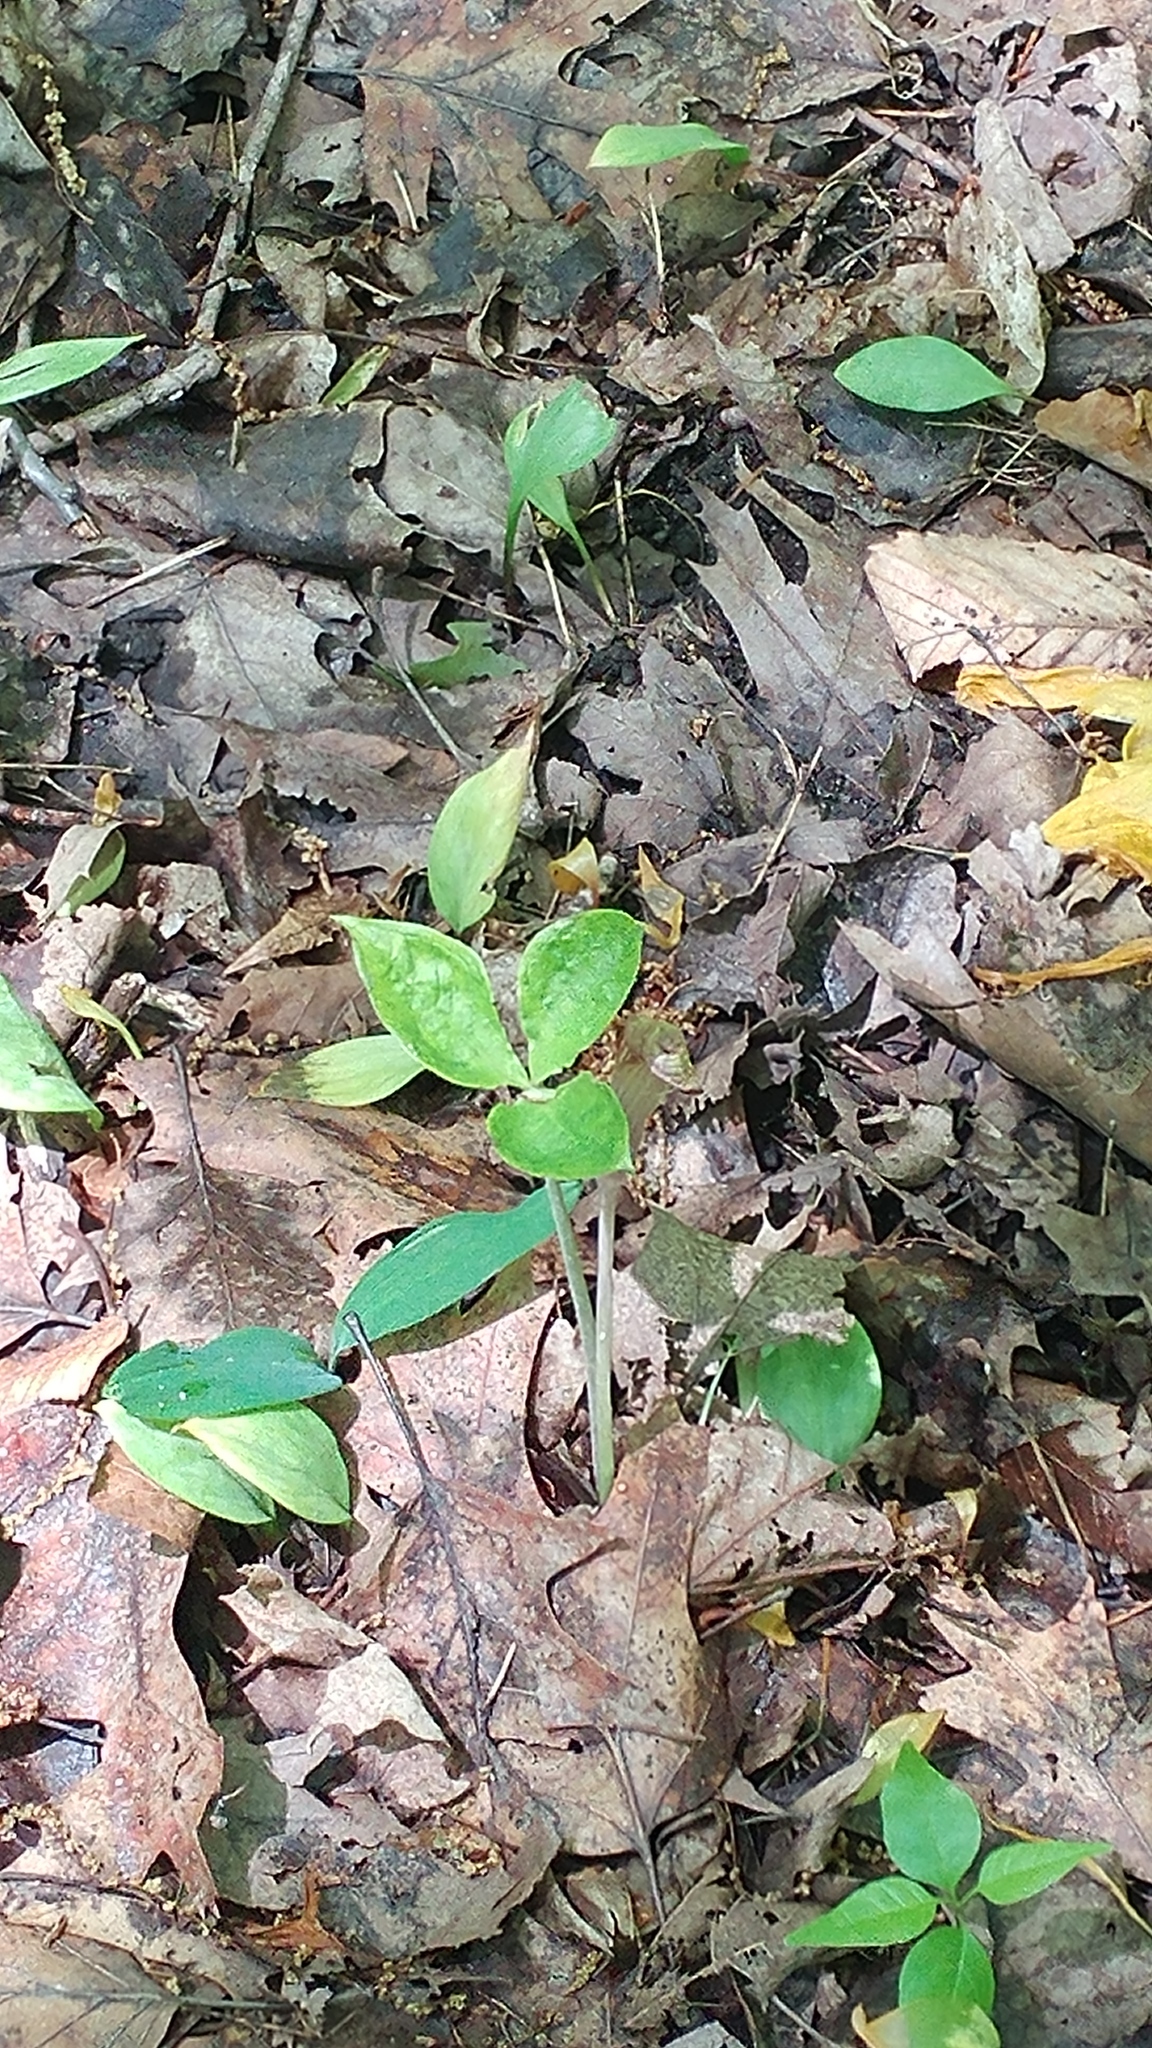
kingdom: Plantae
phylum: Tracheophyta
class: Liliopsida
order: Alismatales
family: Araceae
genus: Arisaema
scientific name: Arisaema triphyllum
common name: Jack-in-the-pulpit
